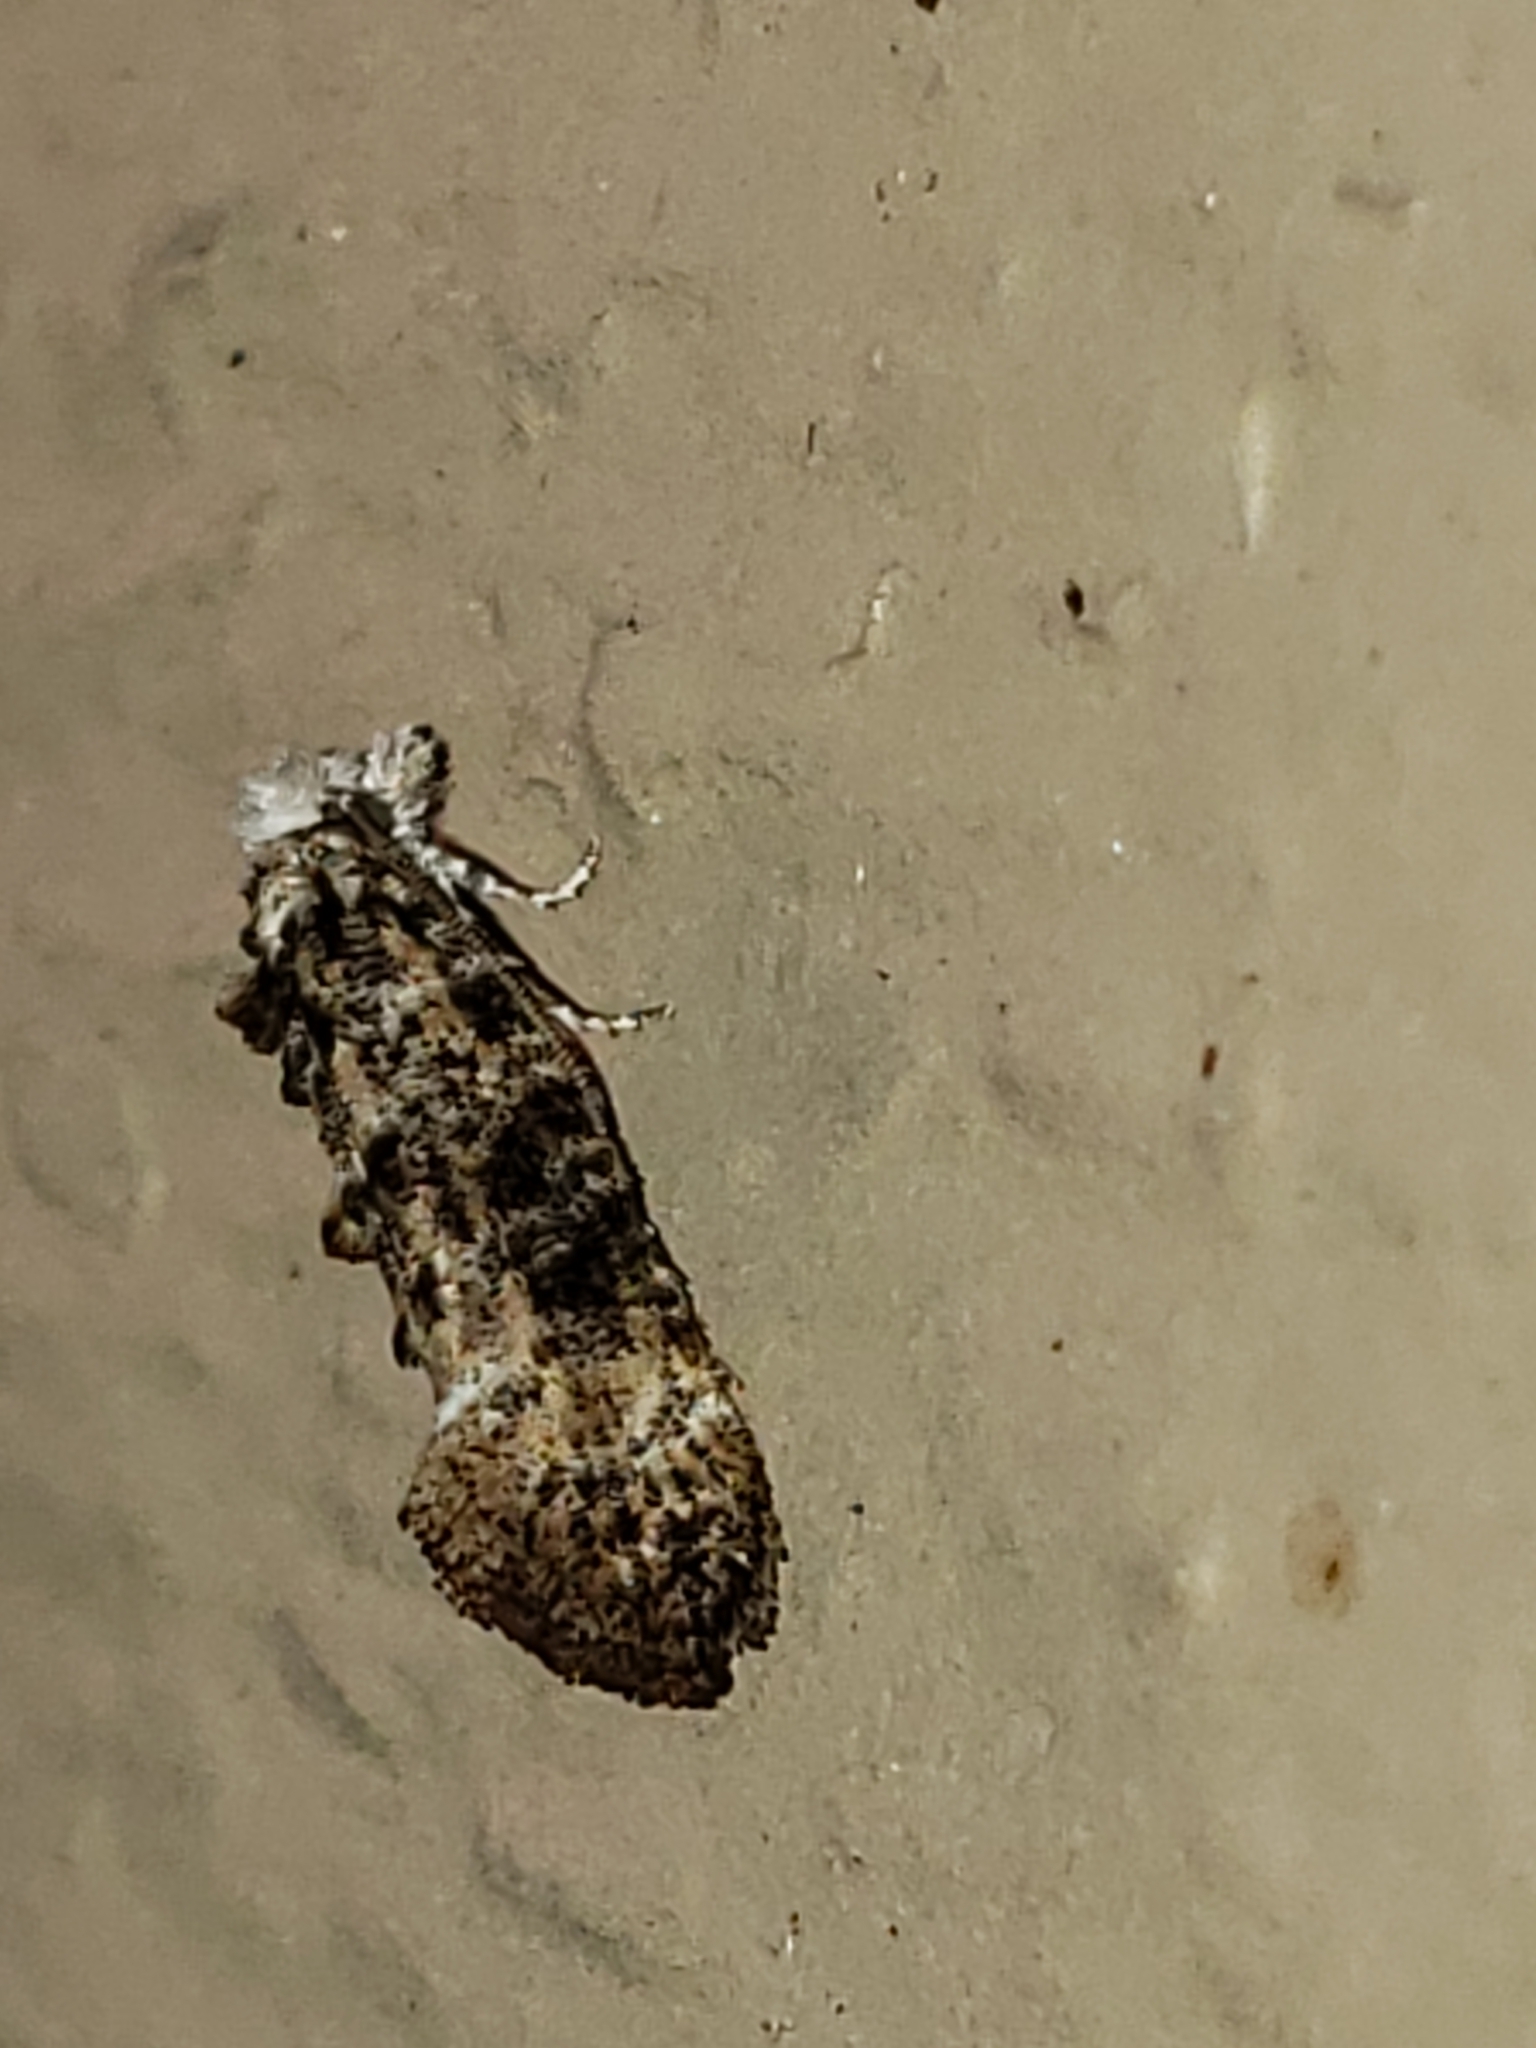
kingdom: Animalia
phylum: Arthropoda
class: Insecta
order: Lepidoptera
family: Tineidae
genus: Xylesthia
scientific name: Xylesthia pruniramiella
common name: Clemens' bark moth
